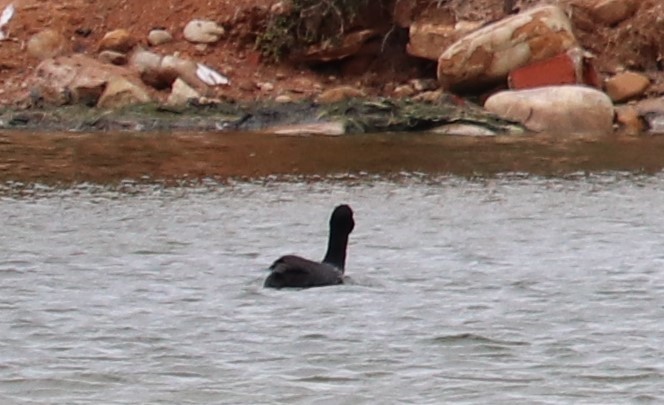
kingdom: Animalia
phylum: Chordata
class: Aves
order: Gruiformes
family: Rallidae
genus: Fulica
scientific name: Fulica cristata
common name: Red-knobbed coot
